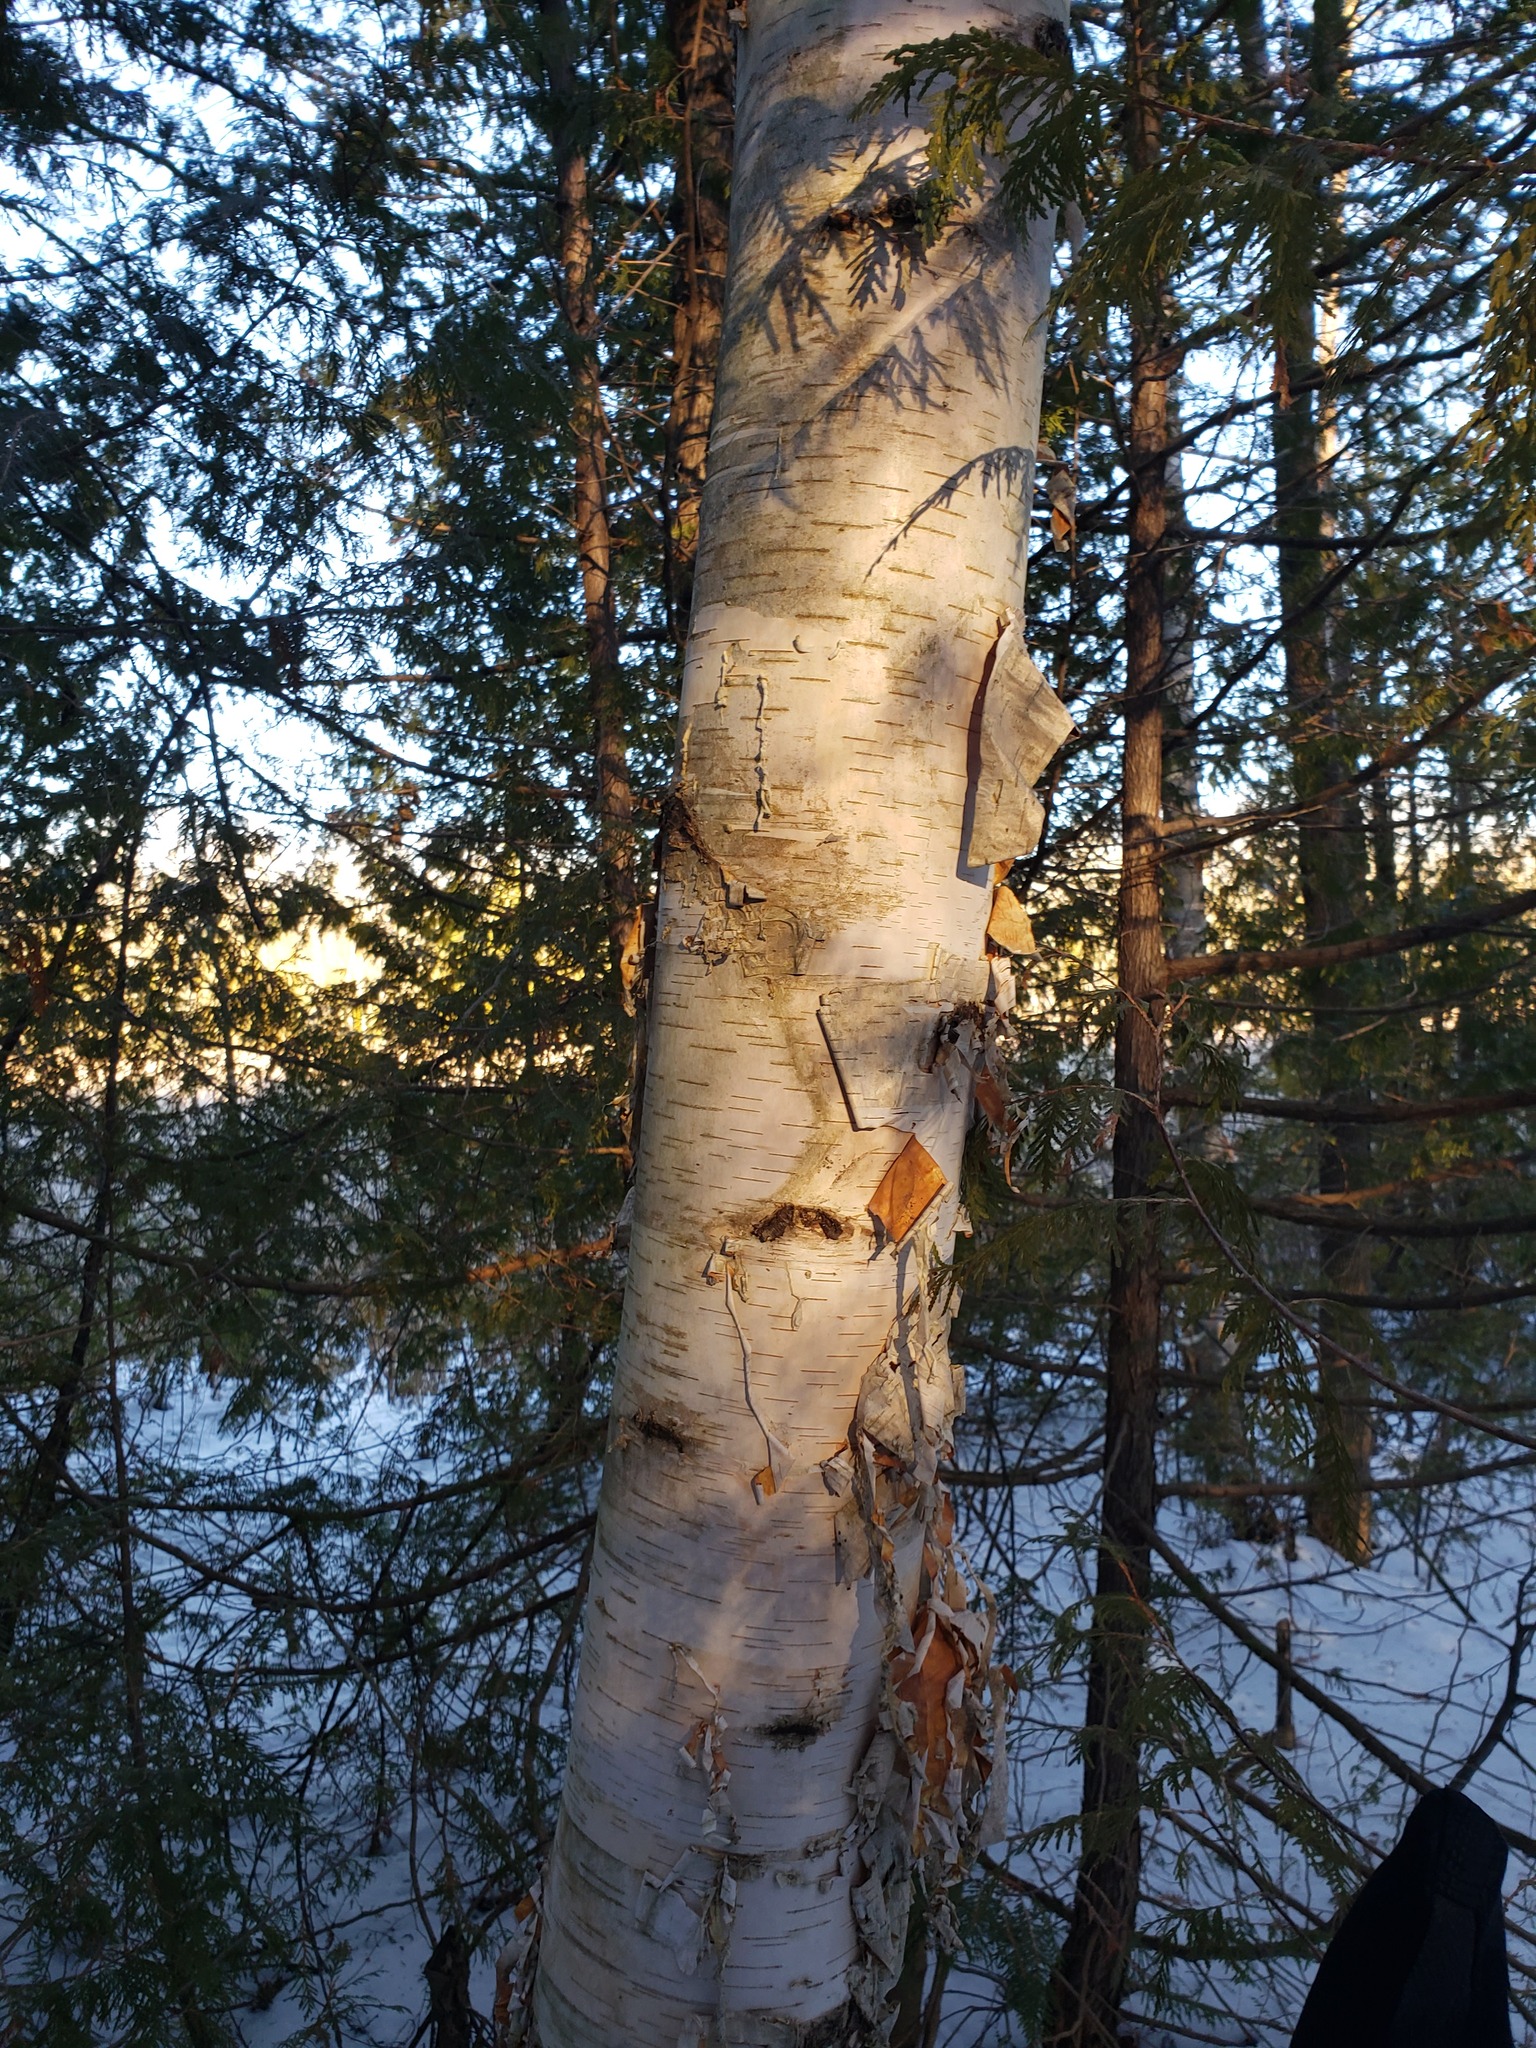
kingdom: Plantae
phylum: Tracheophyta
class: Magnoliopsida
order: Fagales
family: Betulaceae
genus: Betula
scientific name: Betula papyrifera
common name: Paper birch
